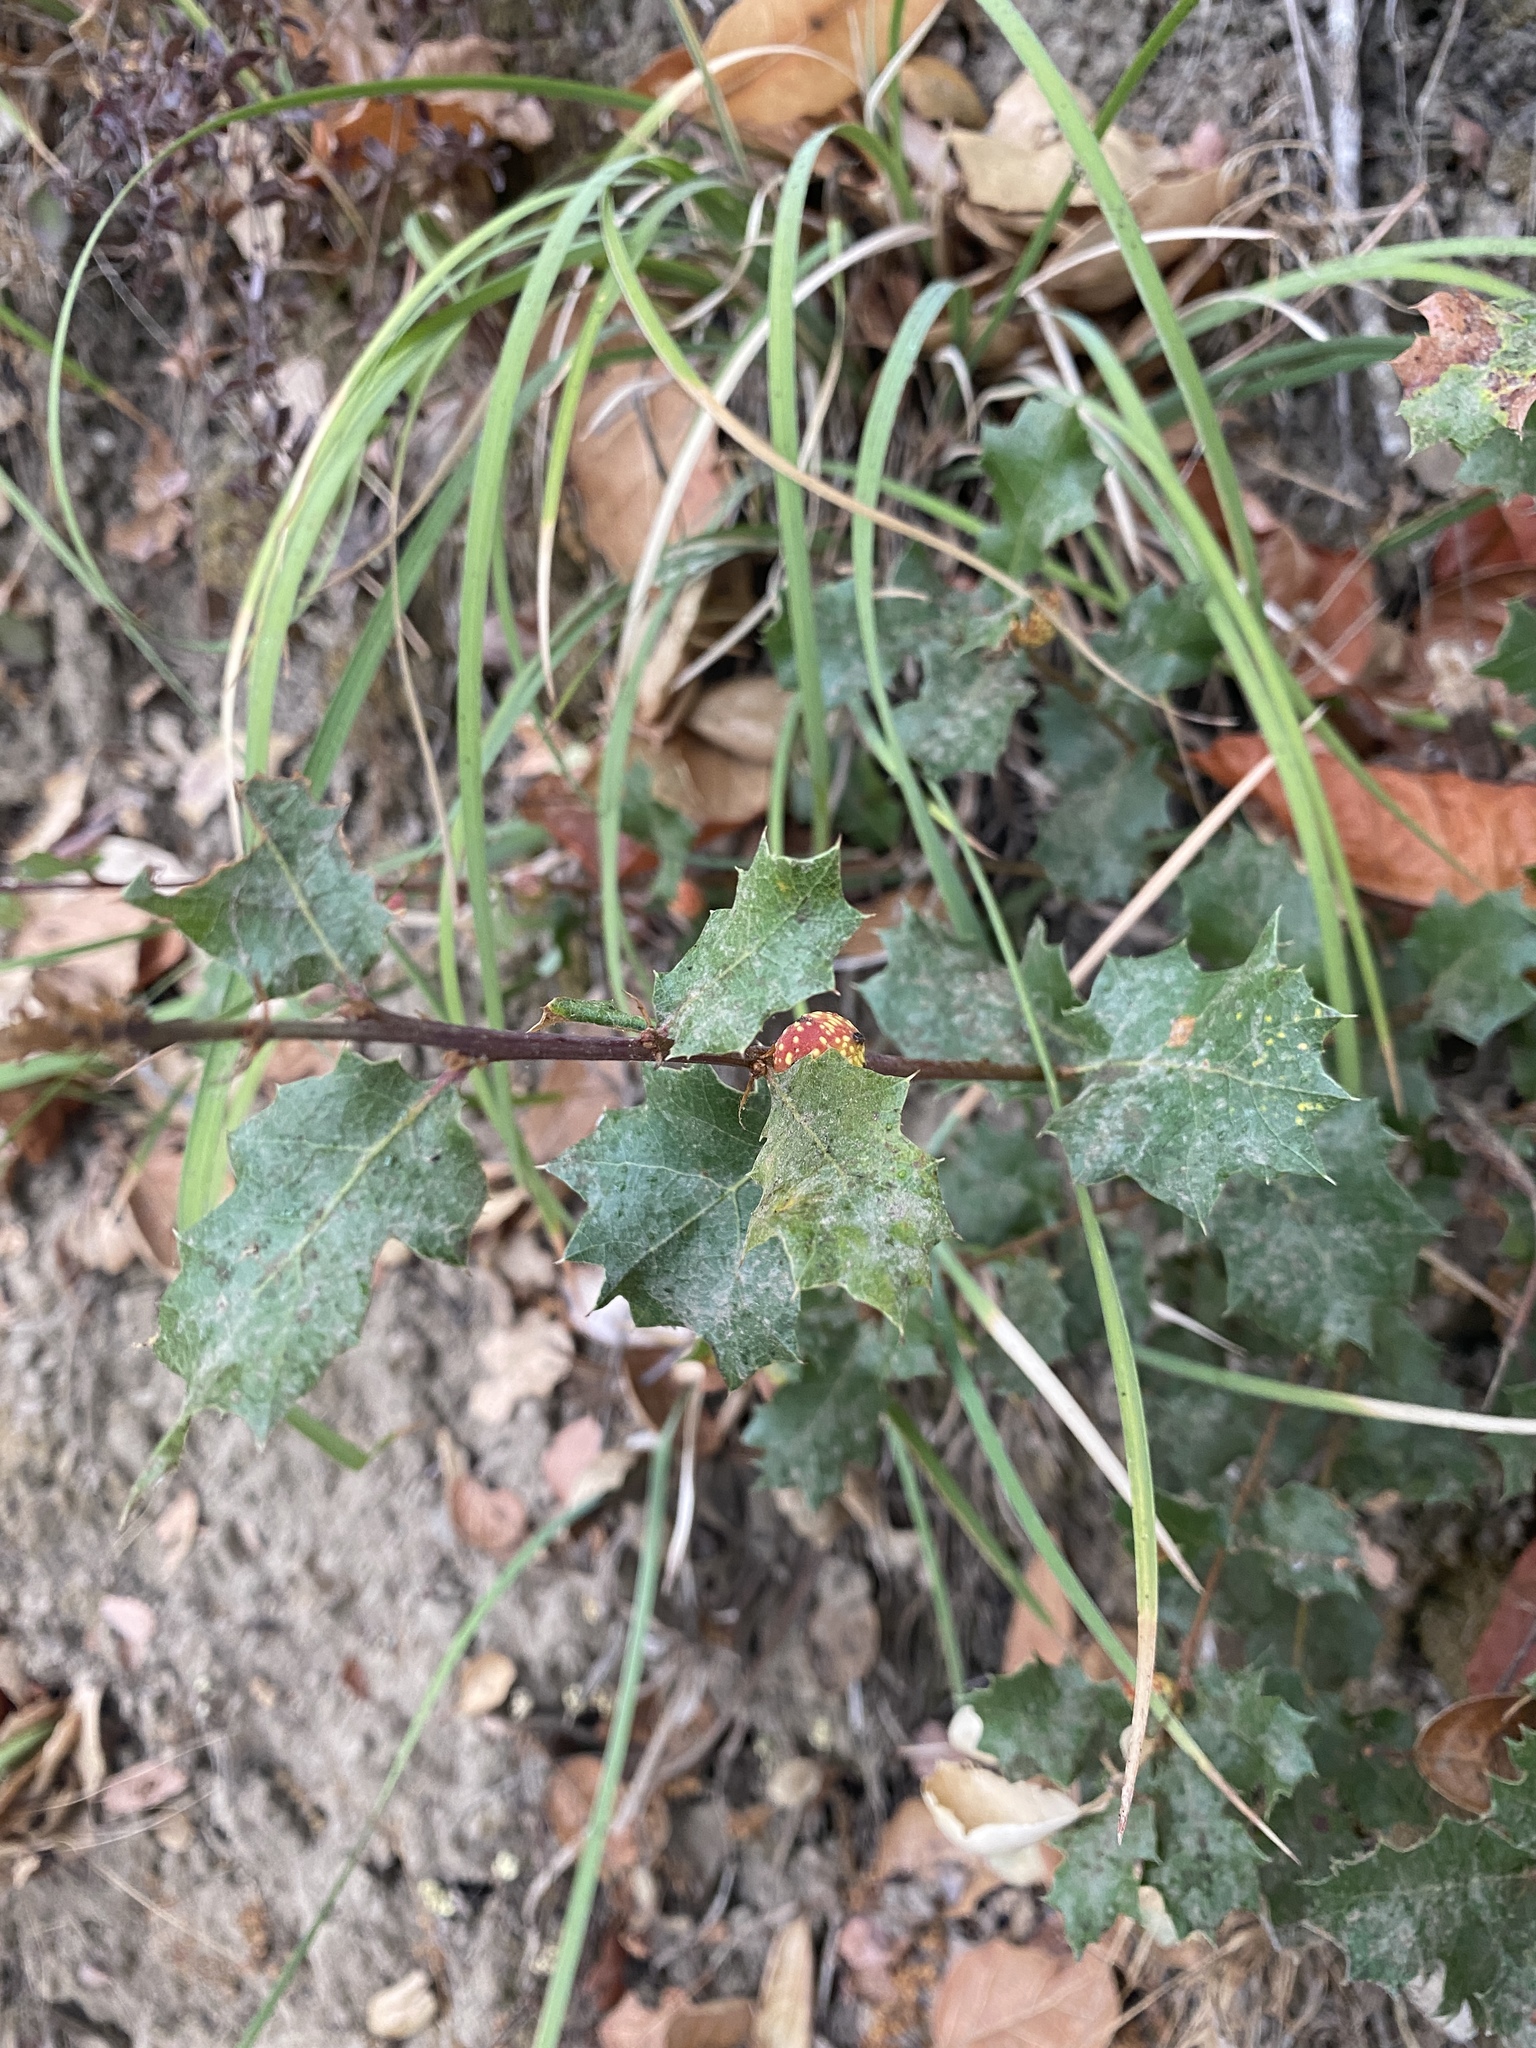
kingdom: Animalia
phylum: Arthropoda
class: Insecta
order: Hymenoptera
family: Cynipidae
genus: Burnettweldia
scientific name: Burnettweldia
